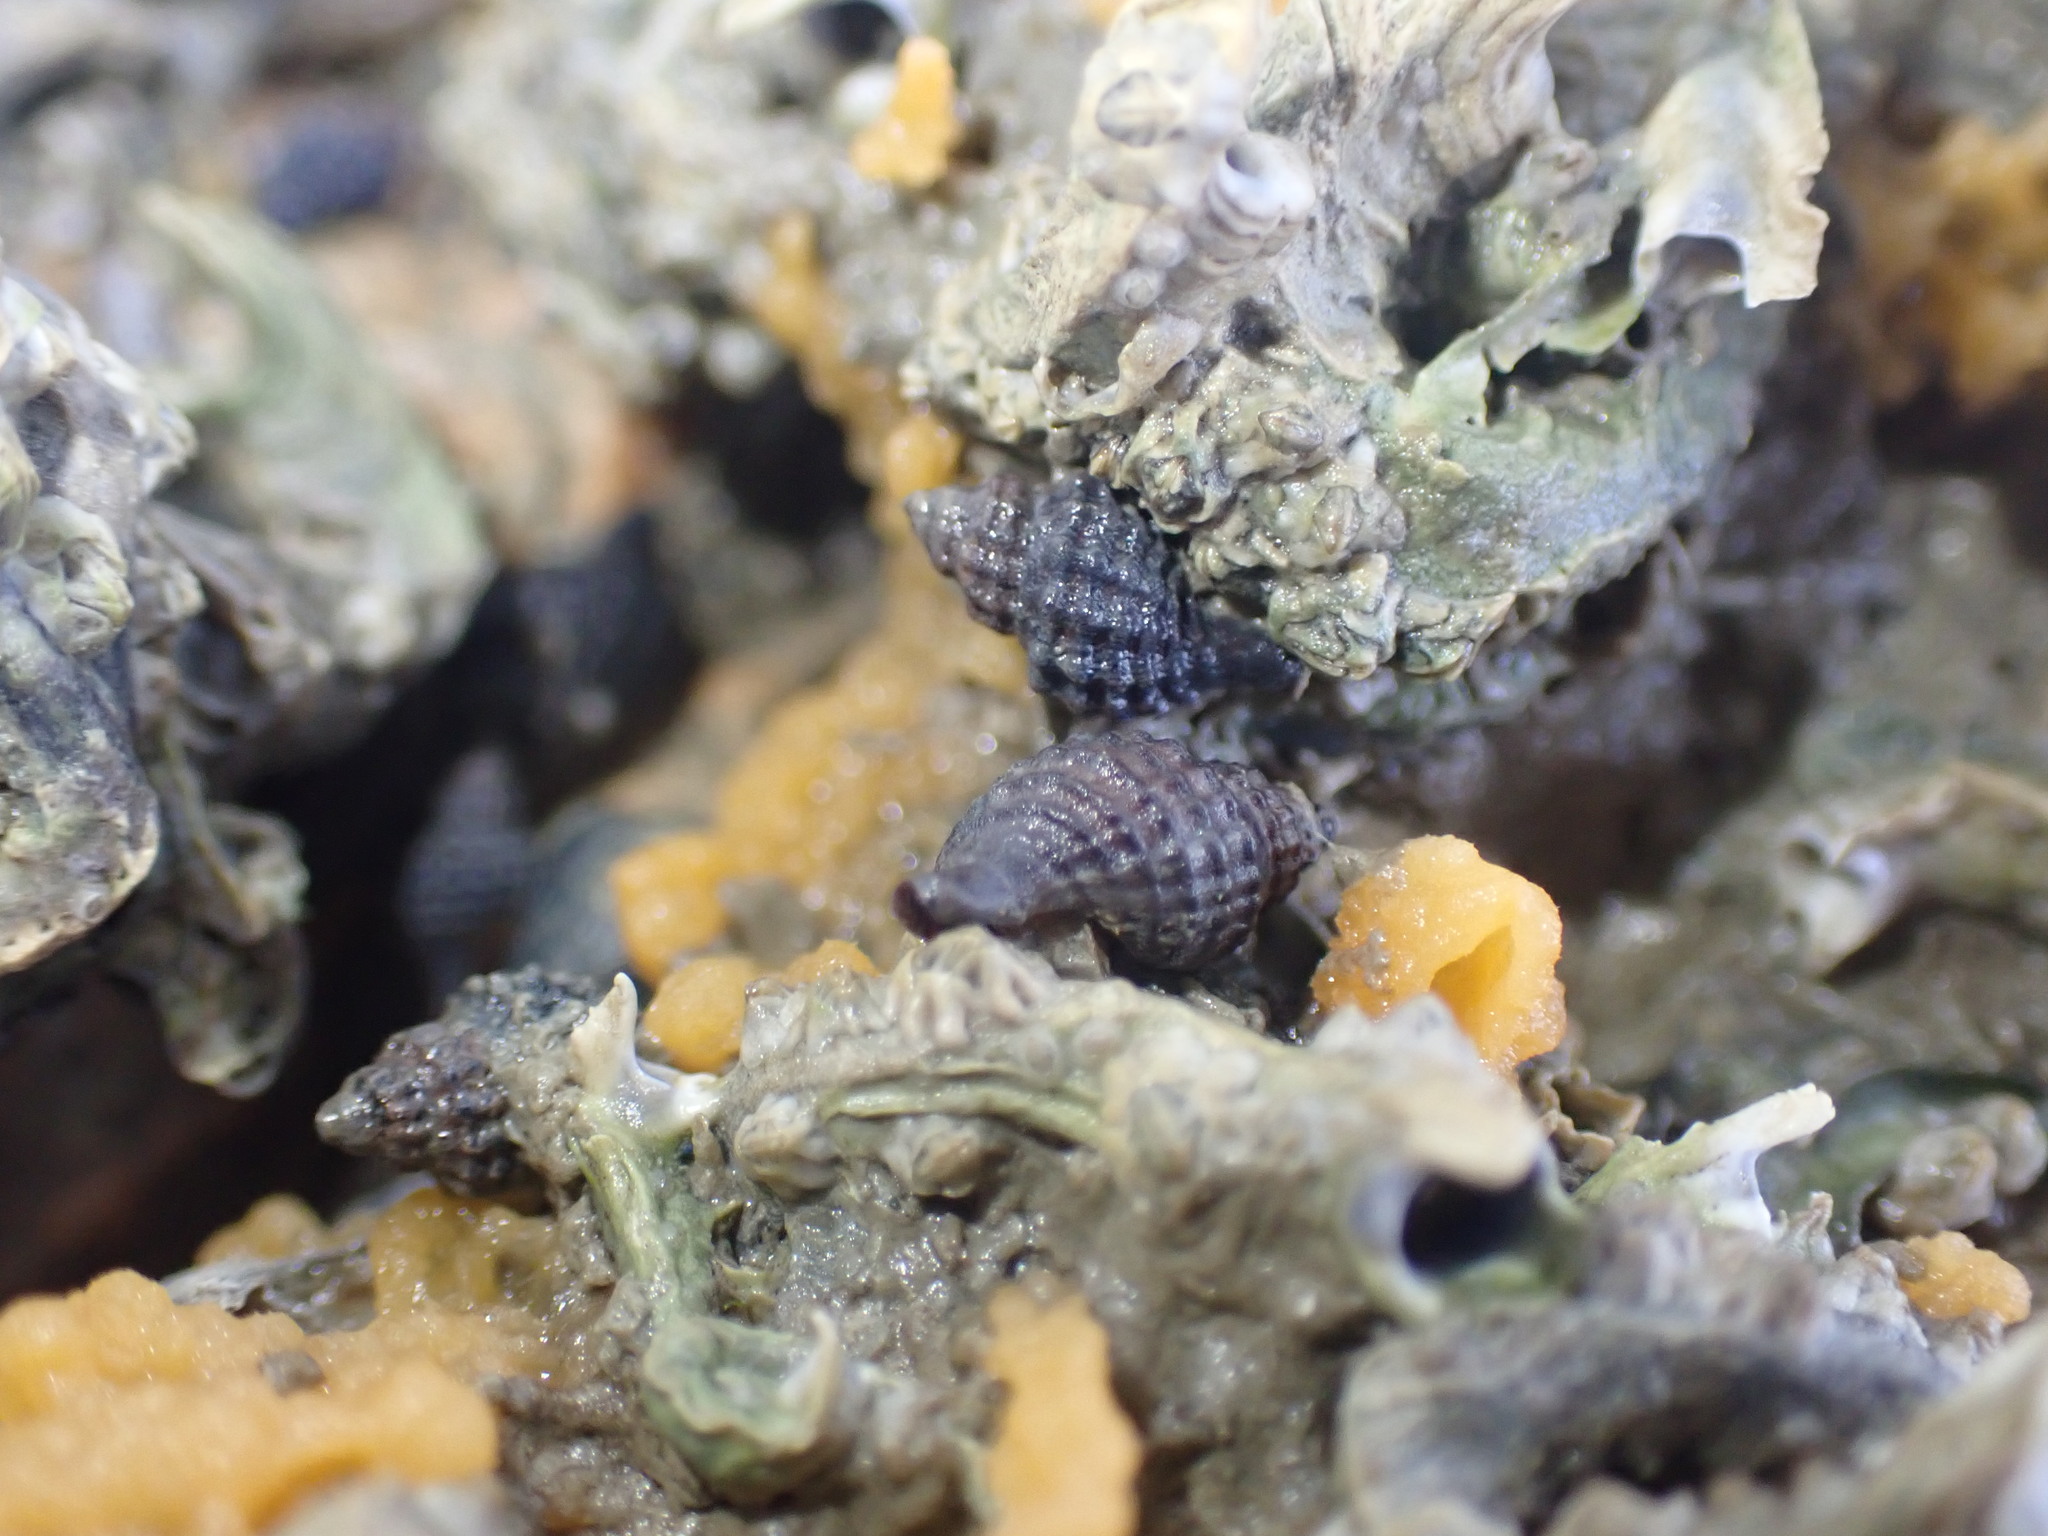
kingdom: Animalia
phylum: Mollusca
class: Gastropoda
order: Neogastropoda
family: Muricidae
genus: Xymene
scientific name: Xymene plebeius
